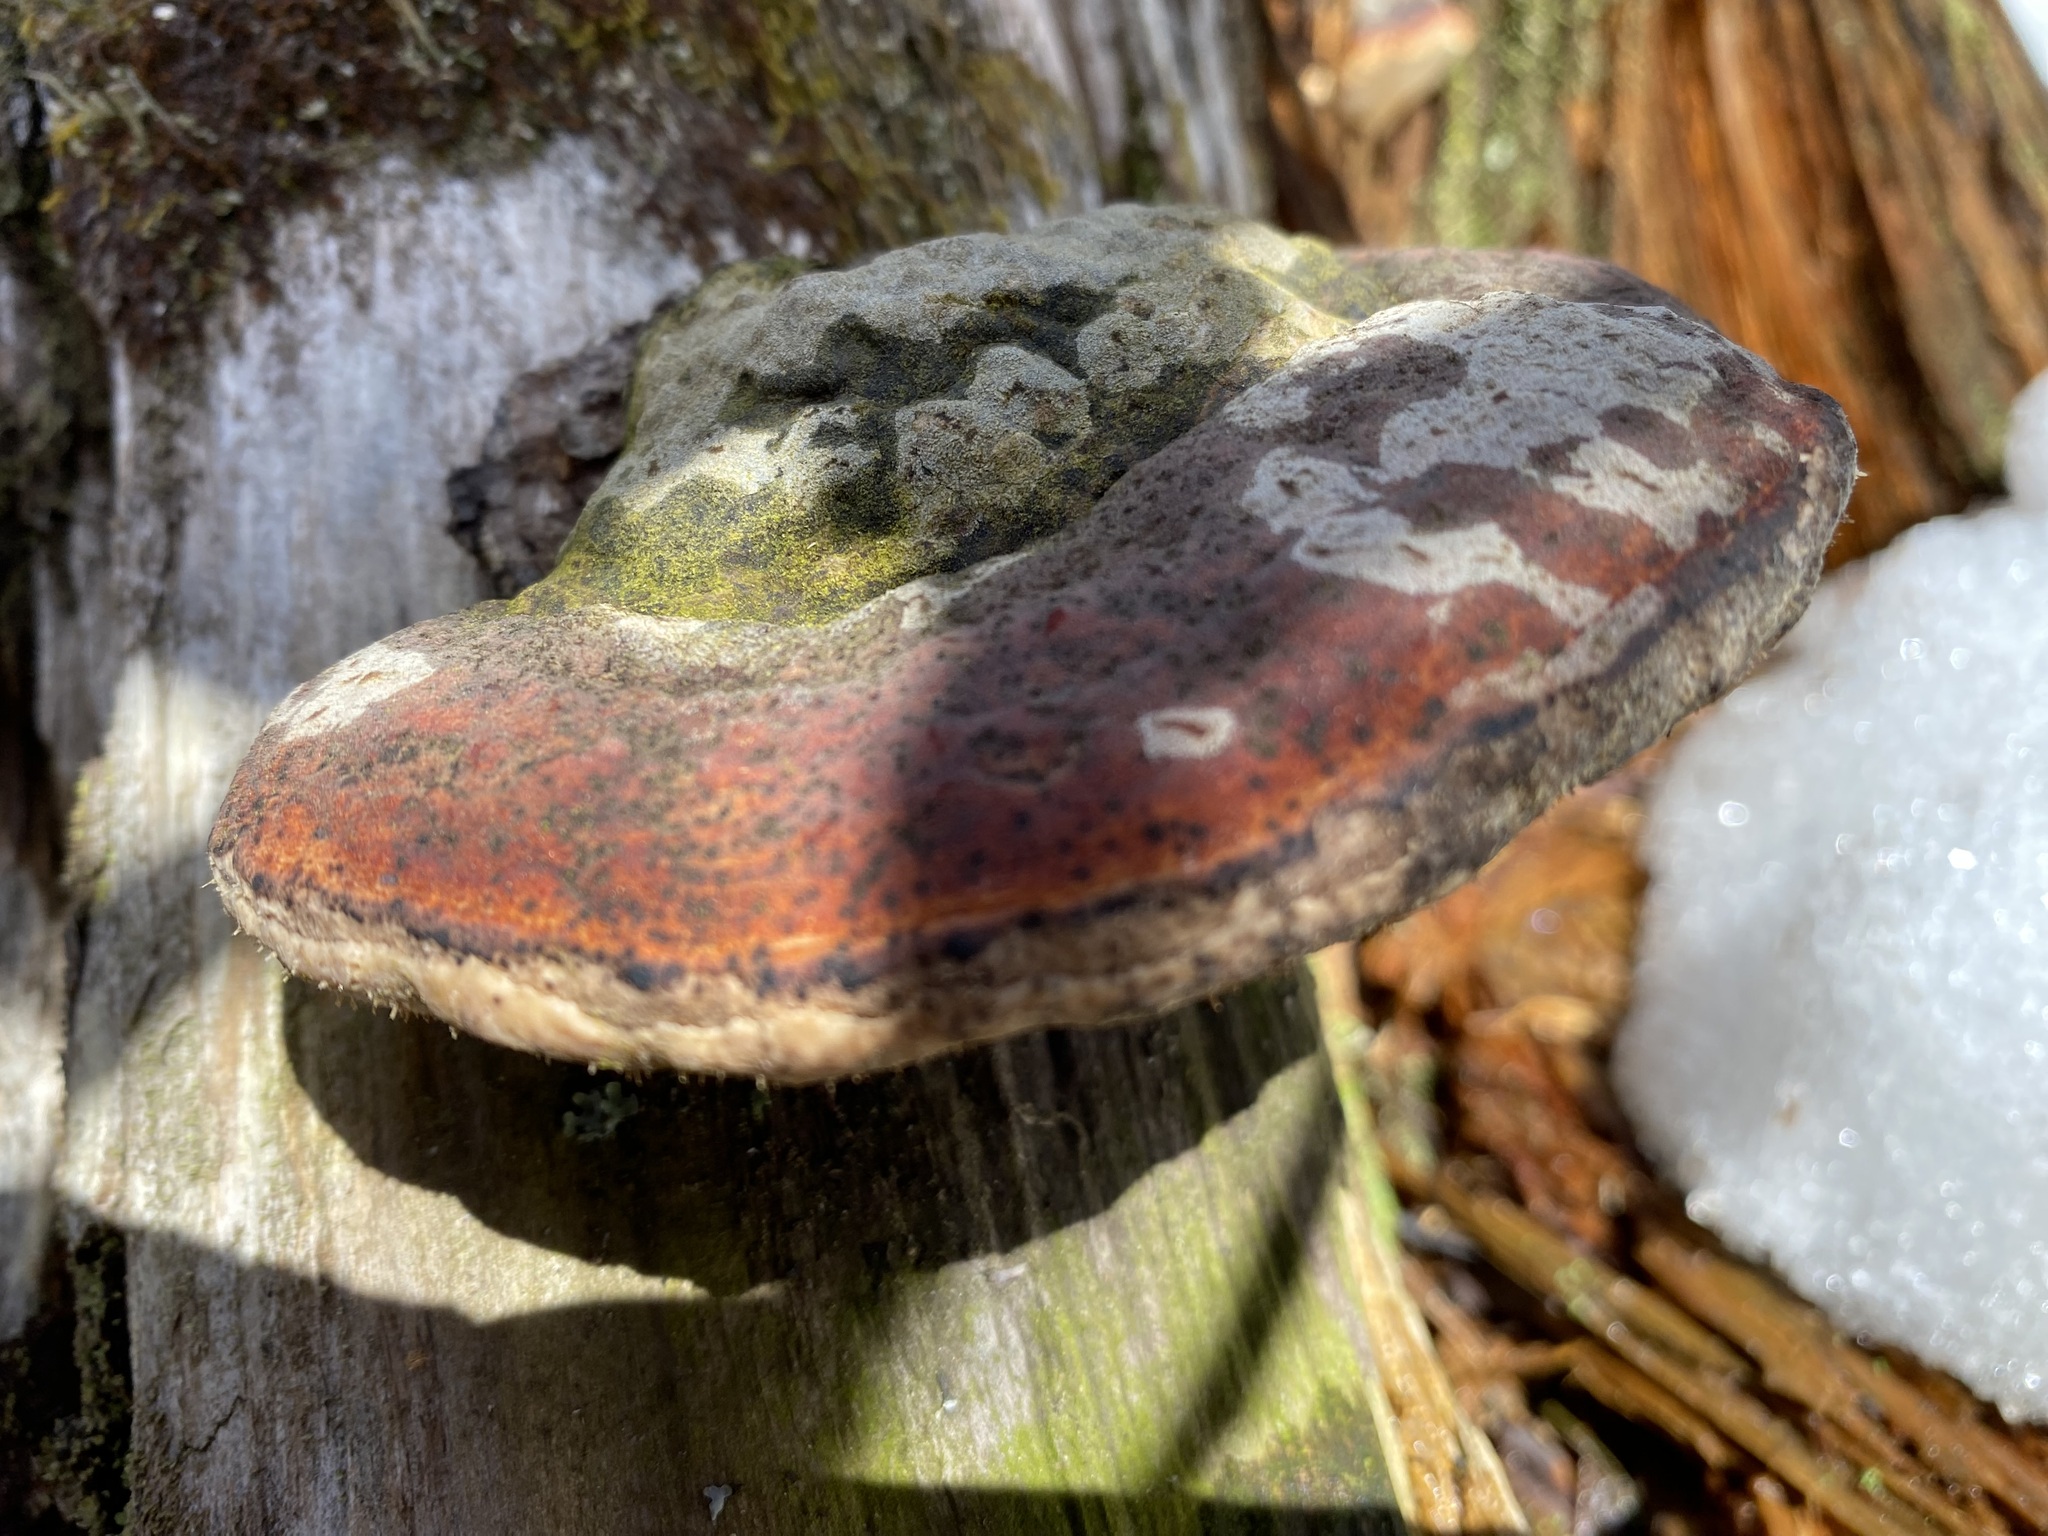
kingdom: Fungi
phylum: Basidiomycota
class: Agaricomycetes
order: Polyporales
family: Fomitopsidaceae
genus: Fomitopsis
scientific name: Fomitopsis mounceae
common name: Northern red belt
